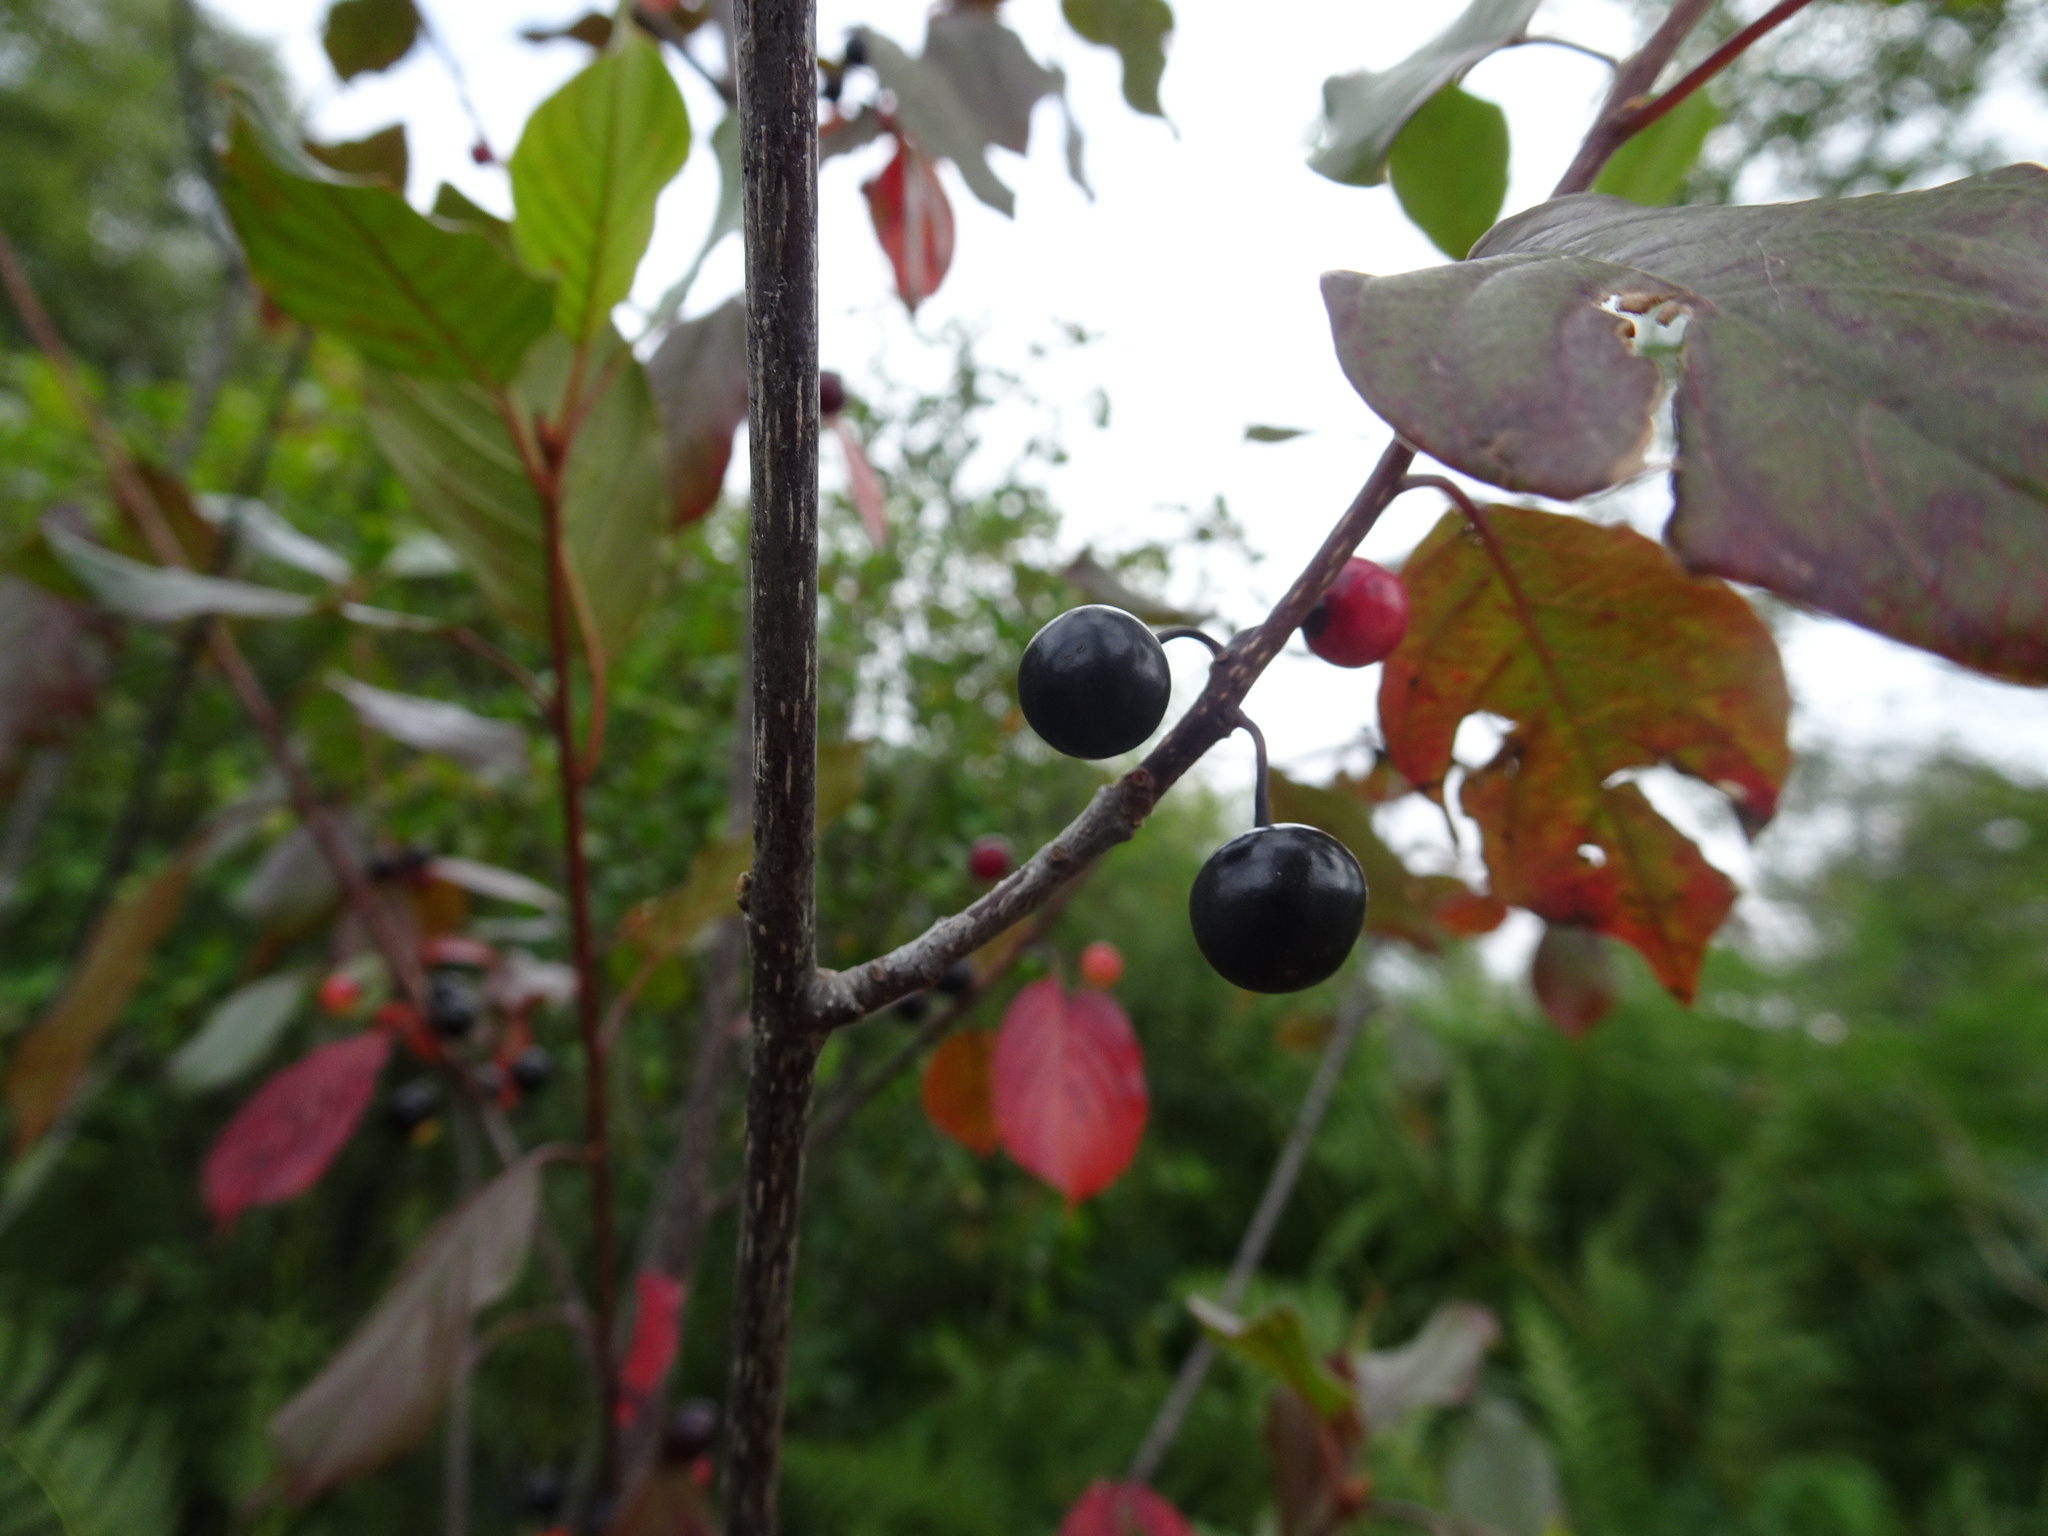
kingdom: Plantae
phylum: Tracheophyta
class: Magnoliopsida
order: Rosales
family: Rhamnaceae
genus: Frangula
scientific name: Frangula alnus
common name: Alder buckthorn
